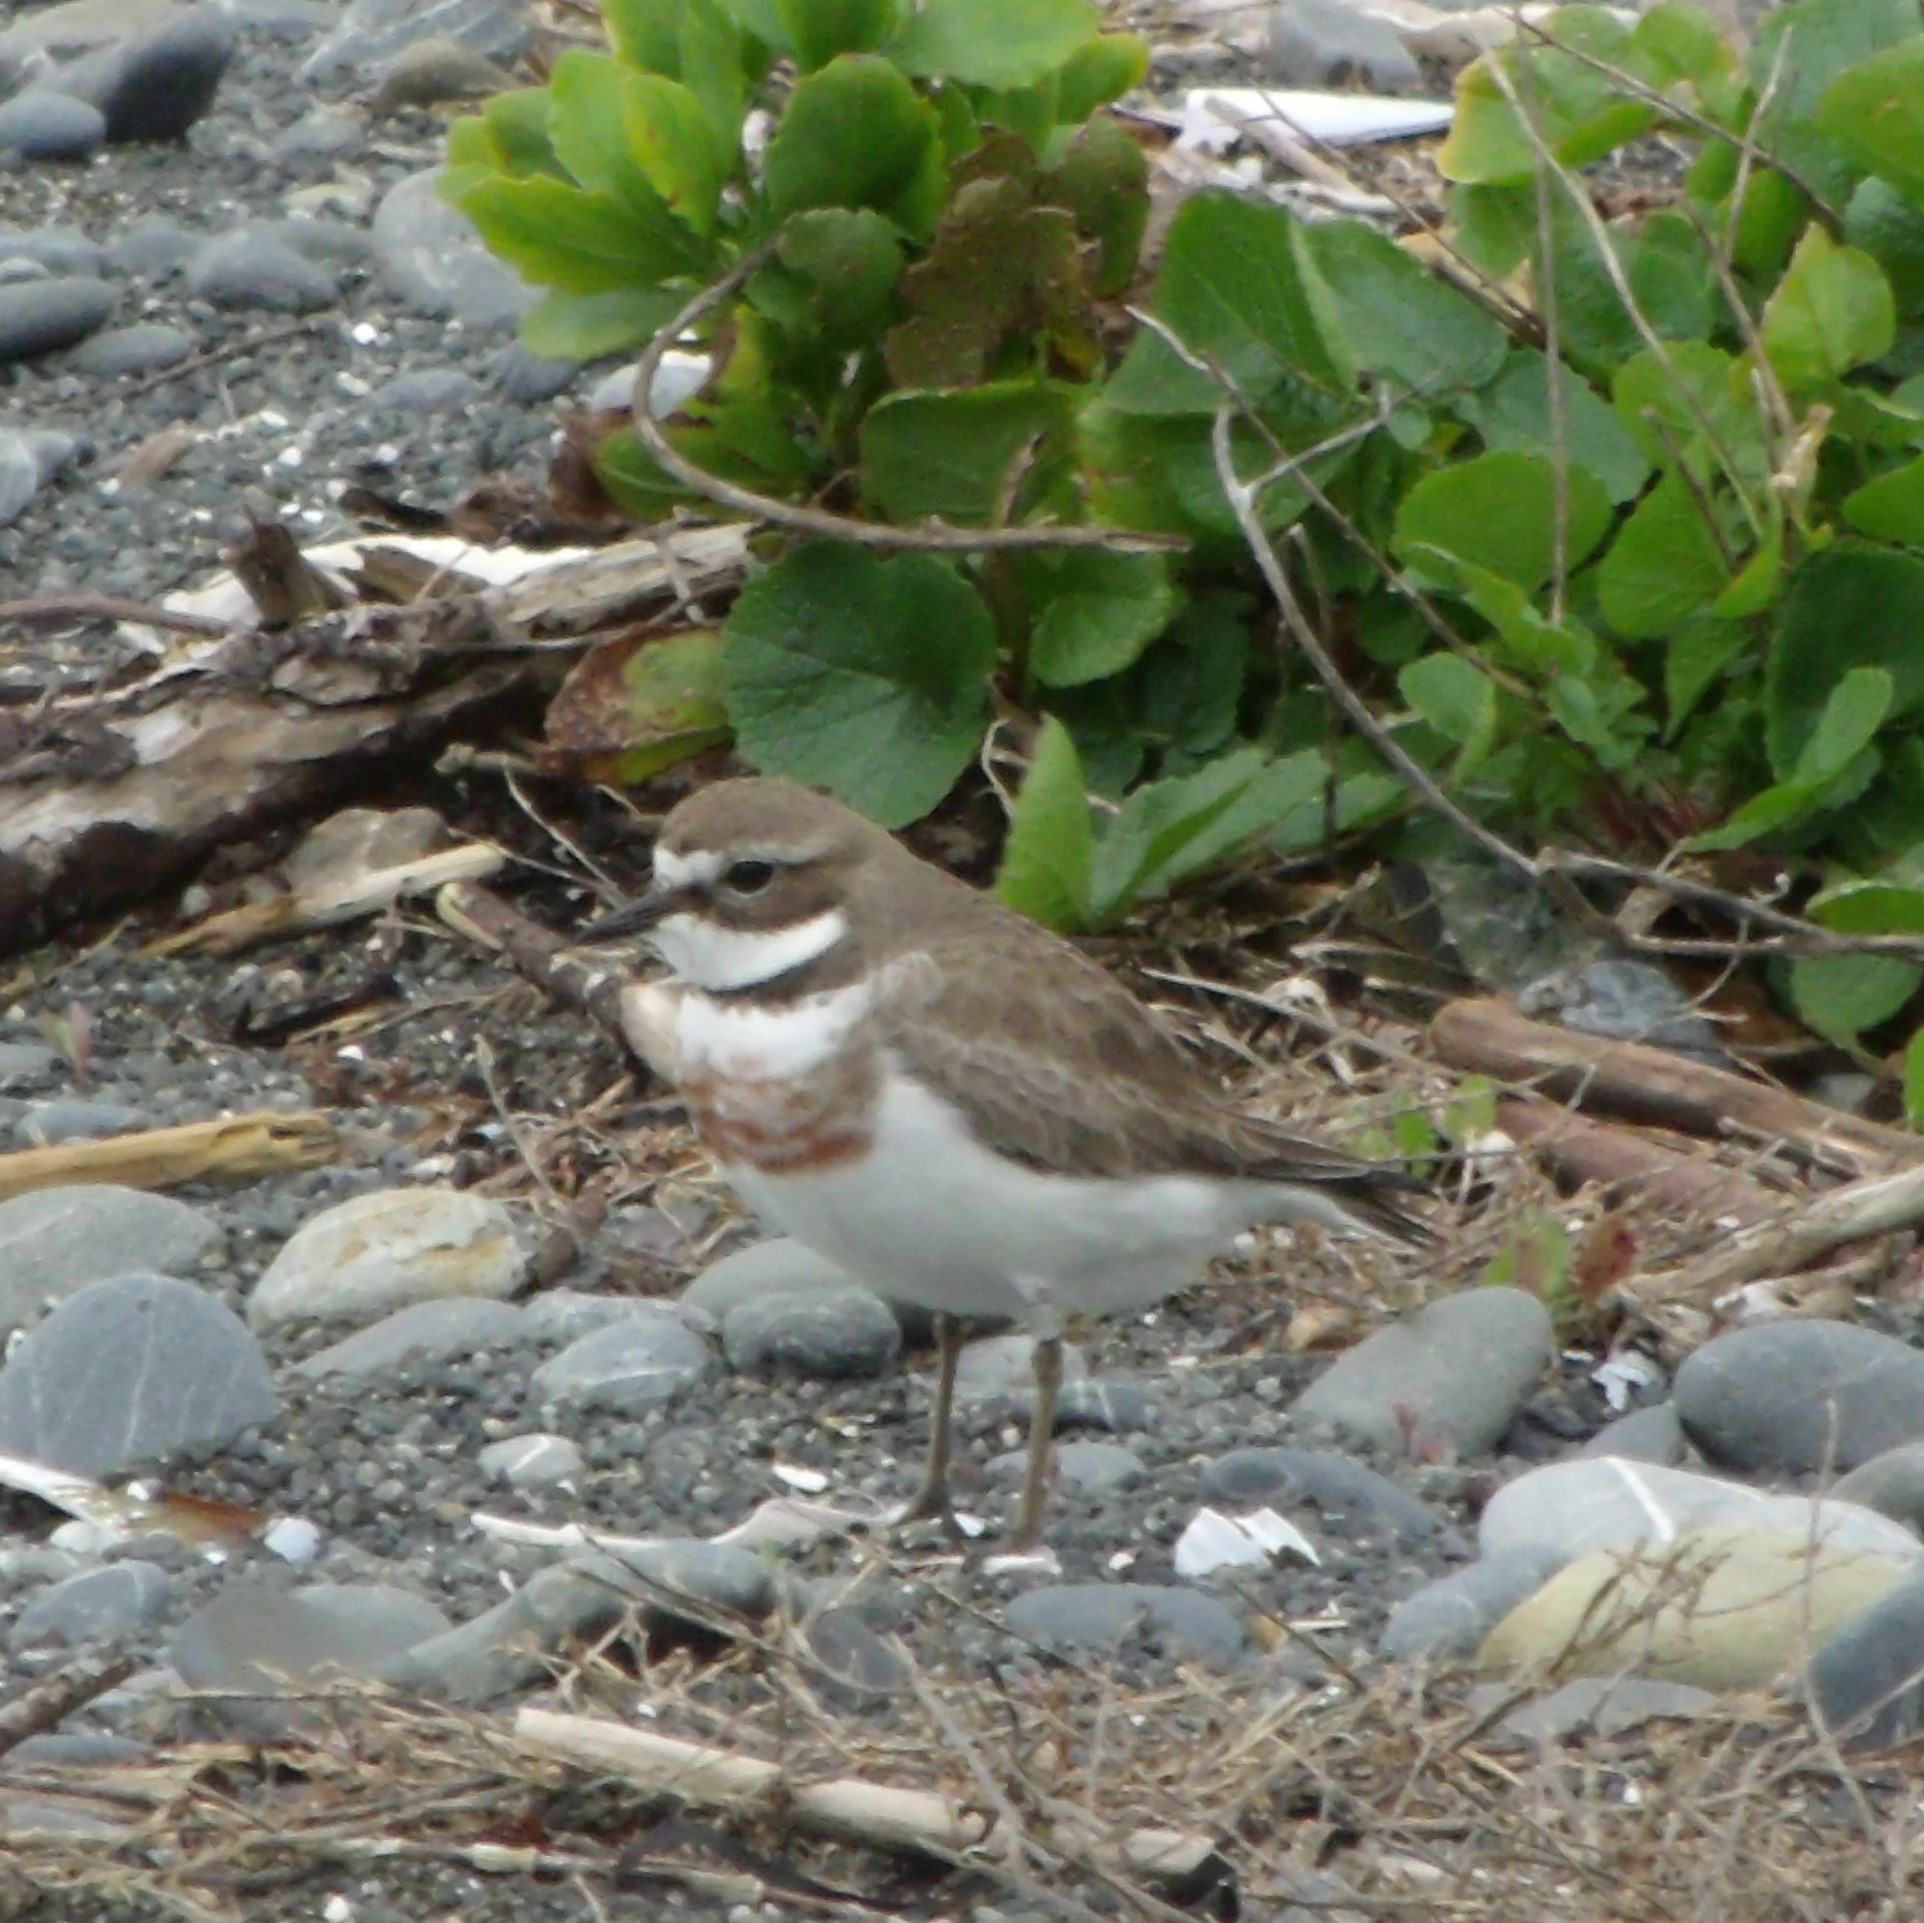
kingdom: Animalia
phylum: Chordata
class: Aves
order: Charadriiformes
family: Charadriidae
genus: Anarhynchus
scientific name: Anarhynchus
